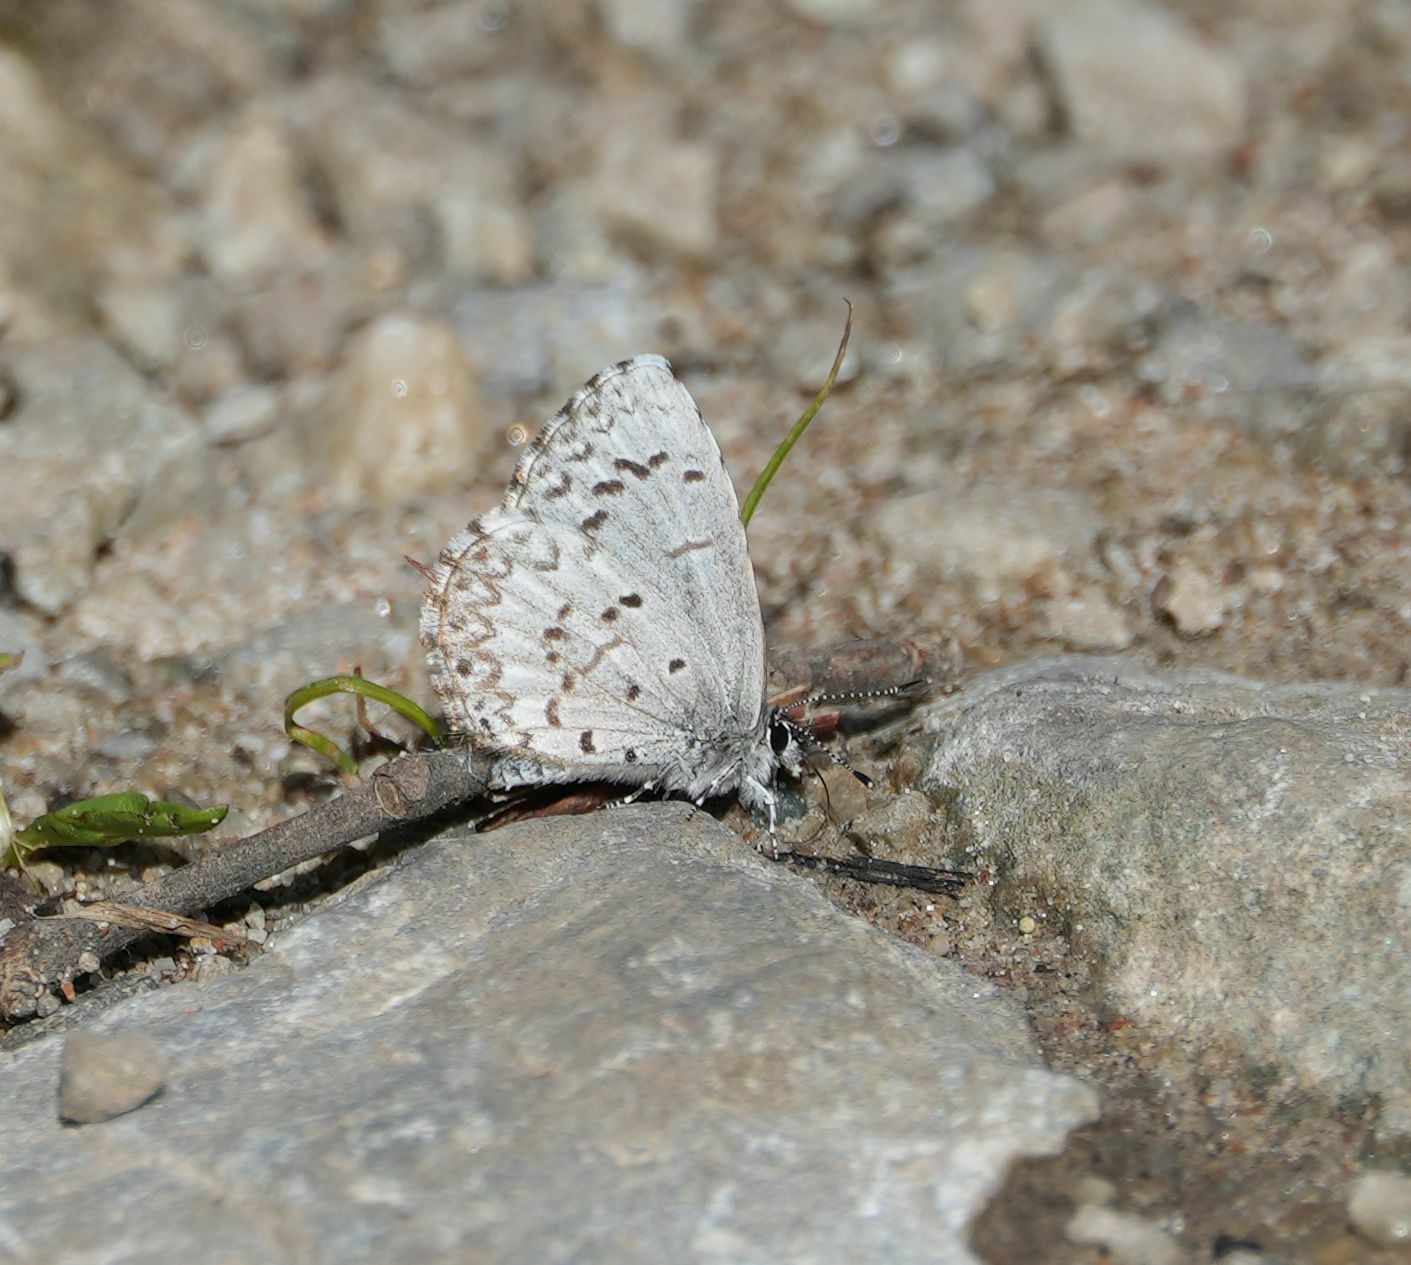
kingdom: Animalia
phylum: Arthropoda
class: Insecta
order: Lepidoptera
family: Lycaenidae
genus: Celastrina
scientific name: Celastrina lucia
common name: Lucia azure
